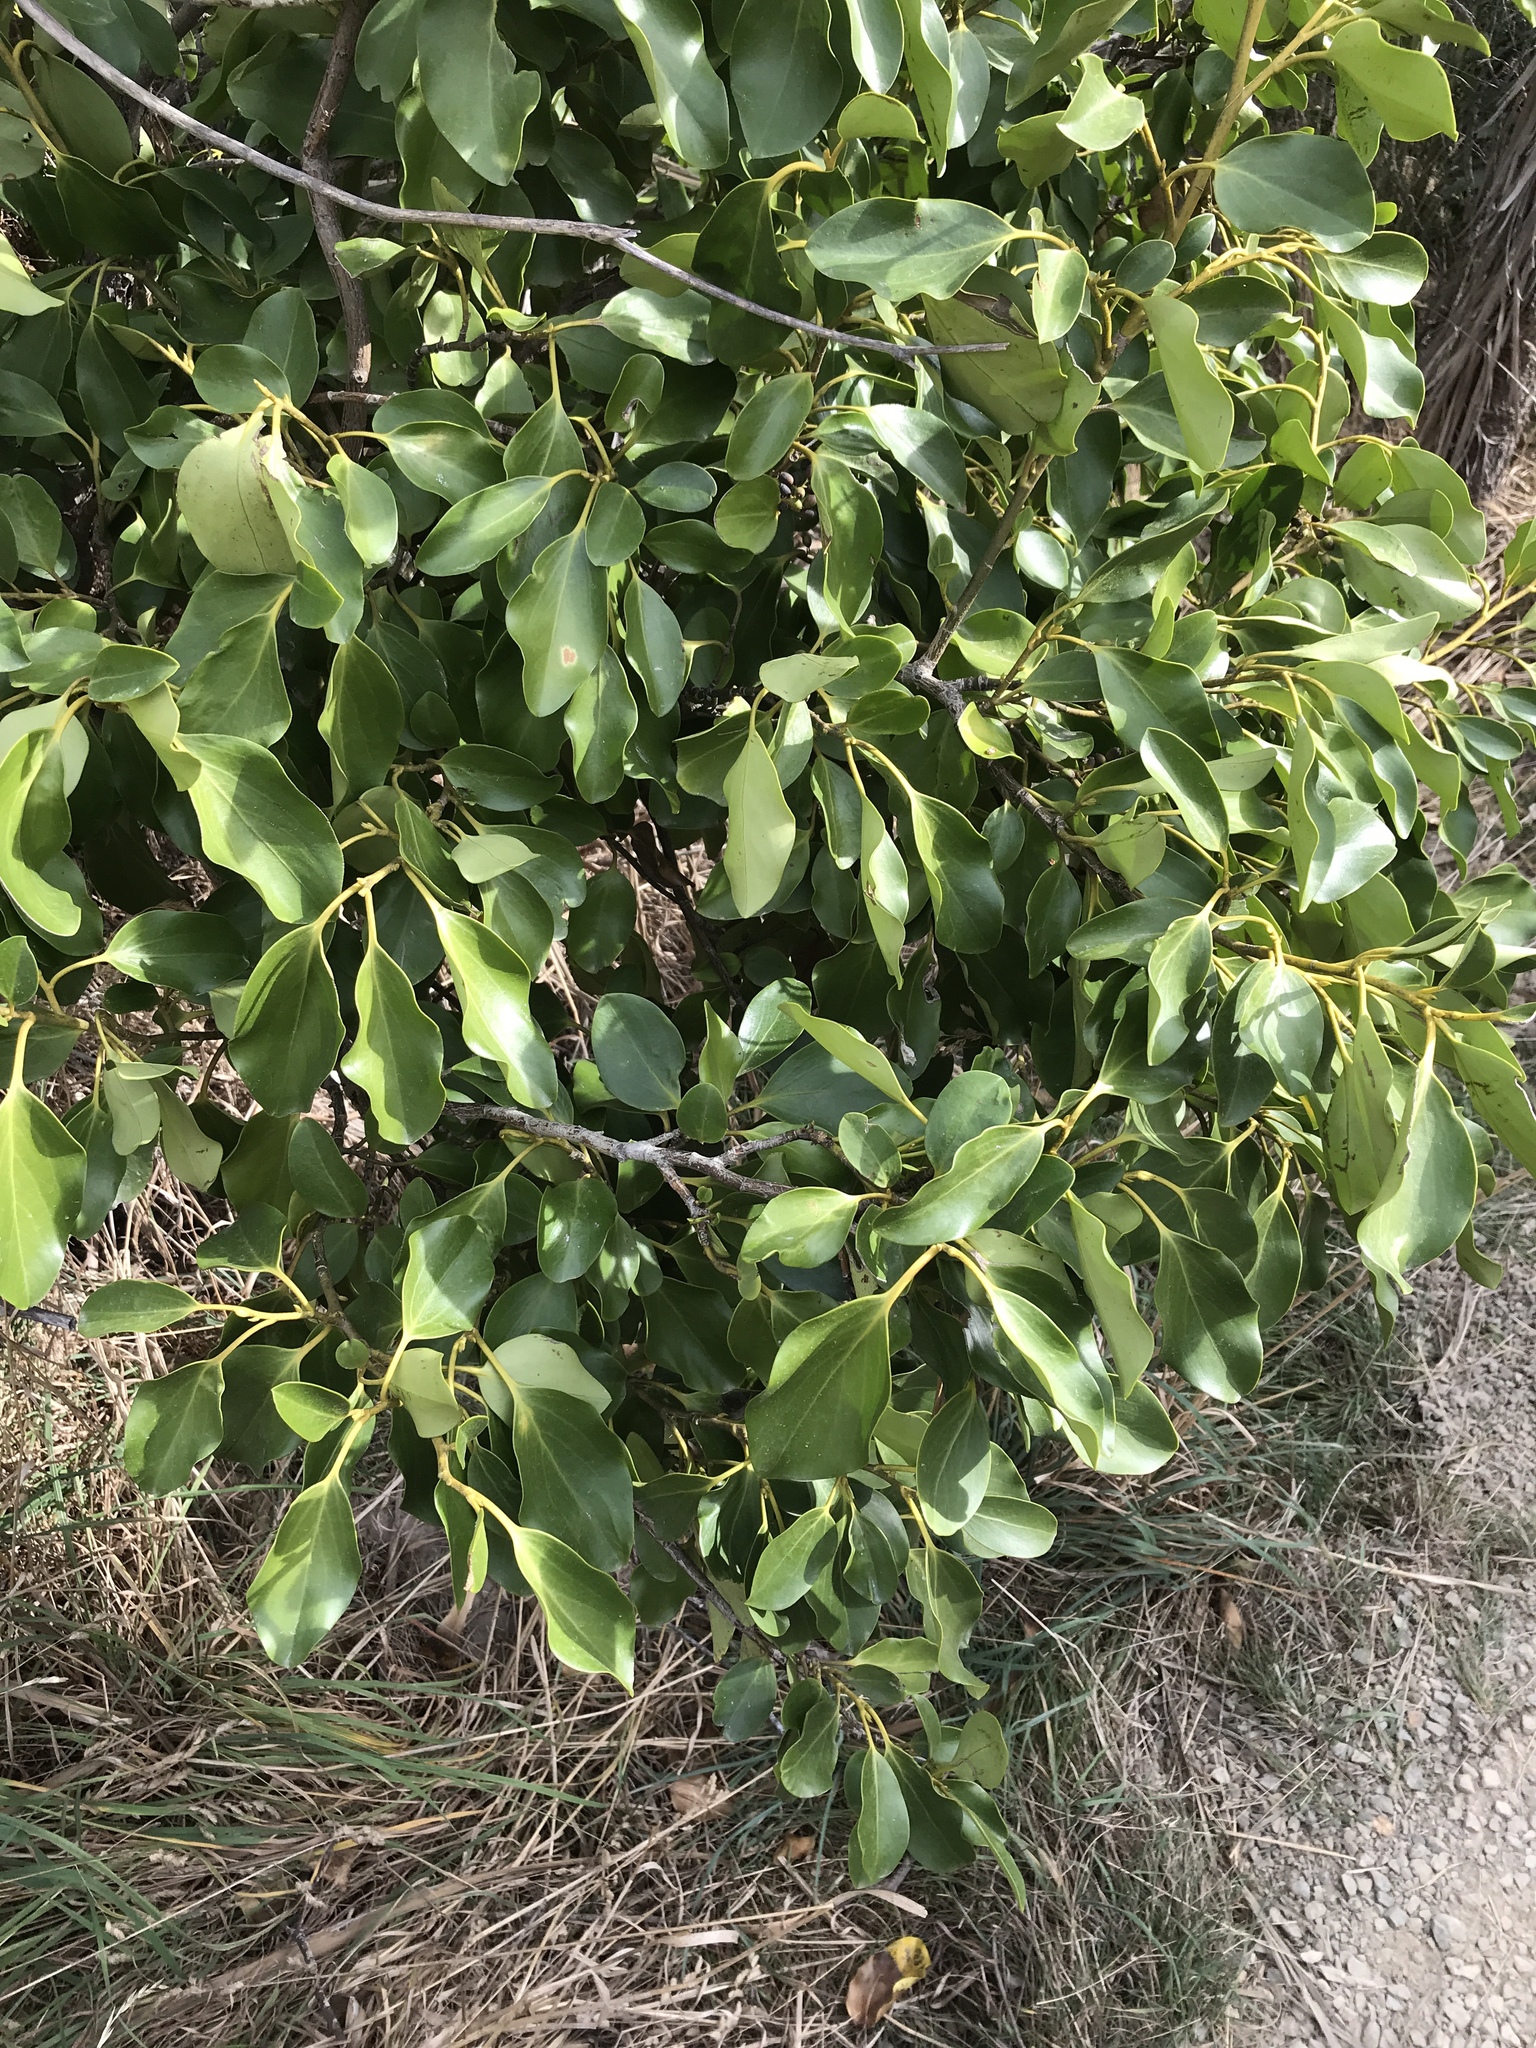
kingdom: Plantae
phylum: Tracheophyta
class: Magnoliopsida
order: Apiales
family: Griseliniaceae
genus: Griselinia
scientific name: Griselinia littoralis
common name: New zealand broadleaf
